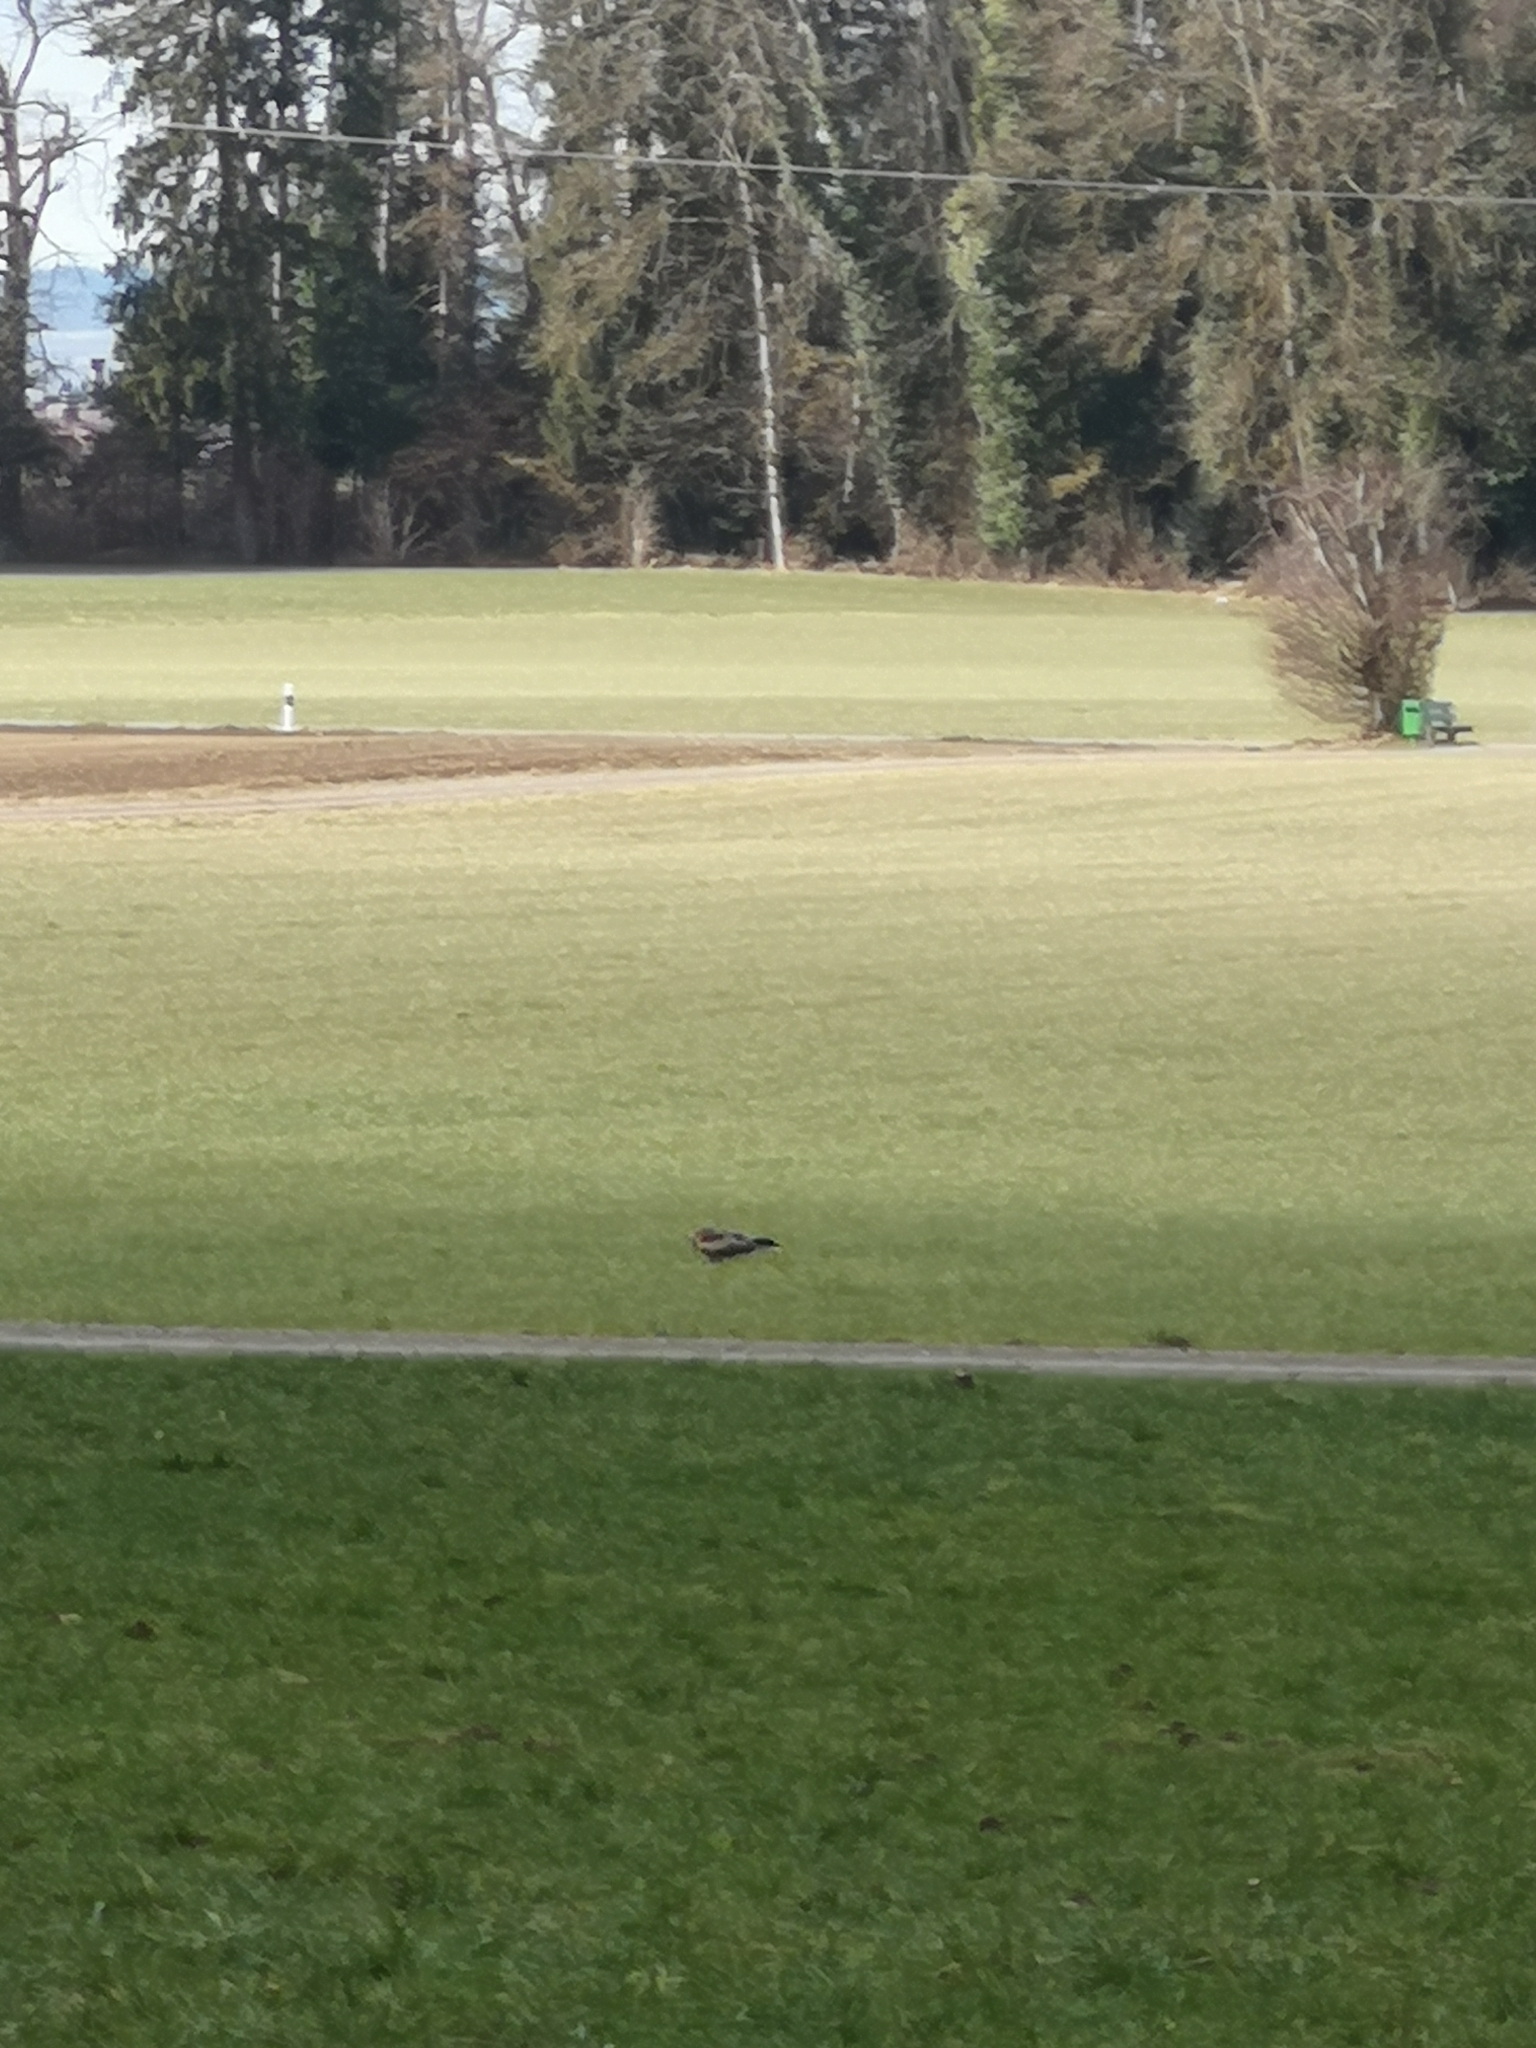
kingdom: Animalia
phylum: Chordata
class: Aves
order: Accipitriformes
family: Accipitridae
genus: Milvus
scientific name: Milvus milvus
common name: Red kite
